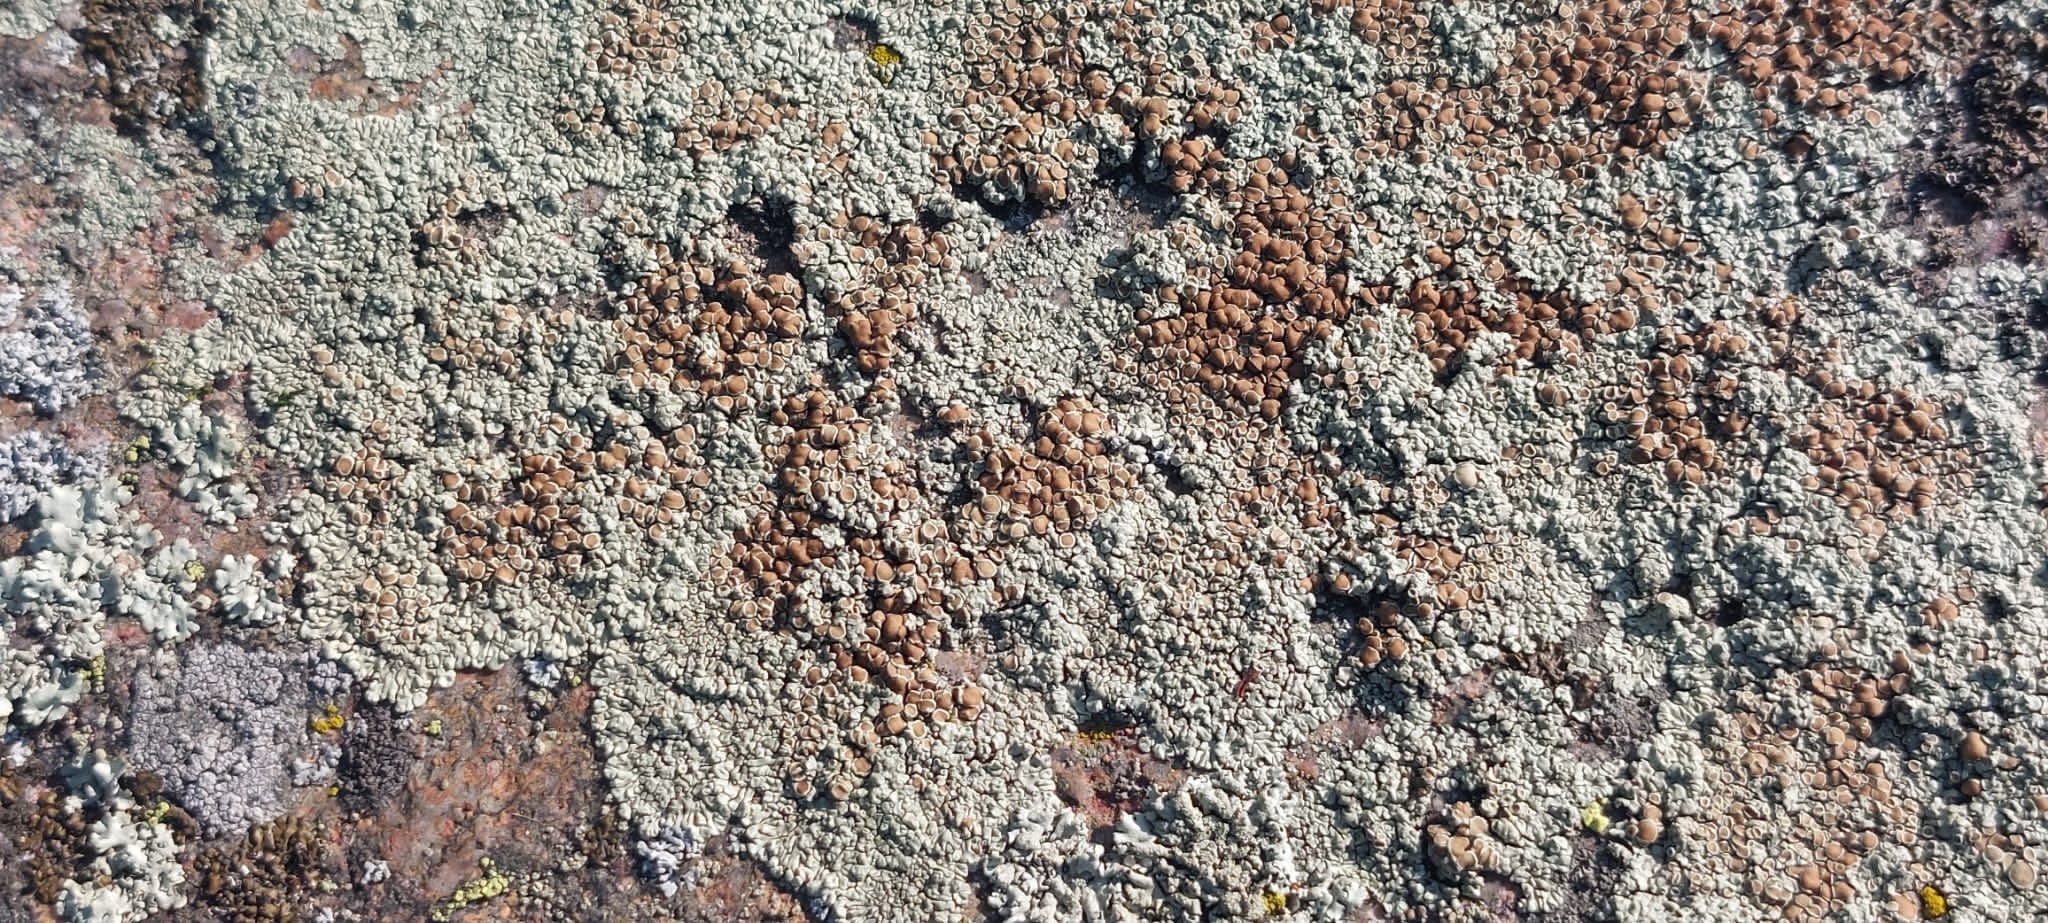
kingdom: Fungi
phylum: Ascomycota
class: Lecanoromycetes
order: Lecanorales
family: Lecanoraceae
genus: Protoparmeliopsis
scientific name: Protoparmeliopsis muralis
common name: Stonewall rim lichen
